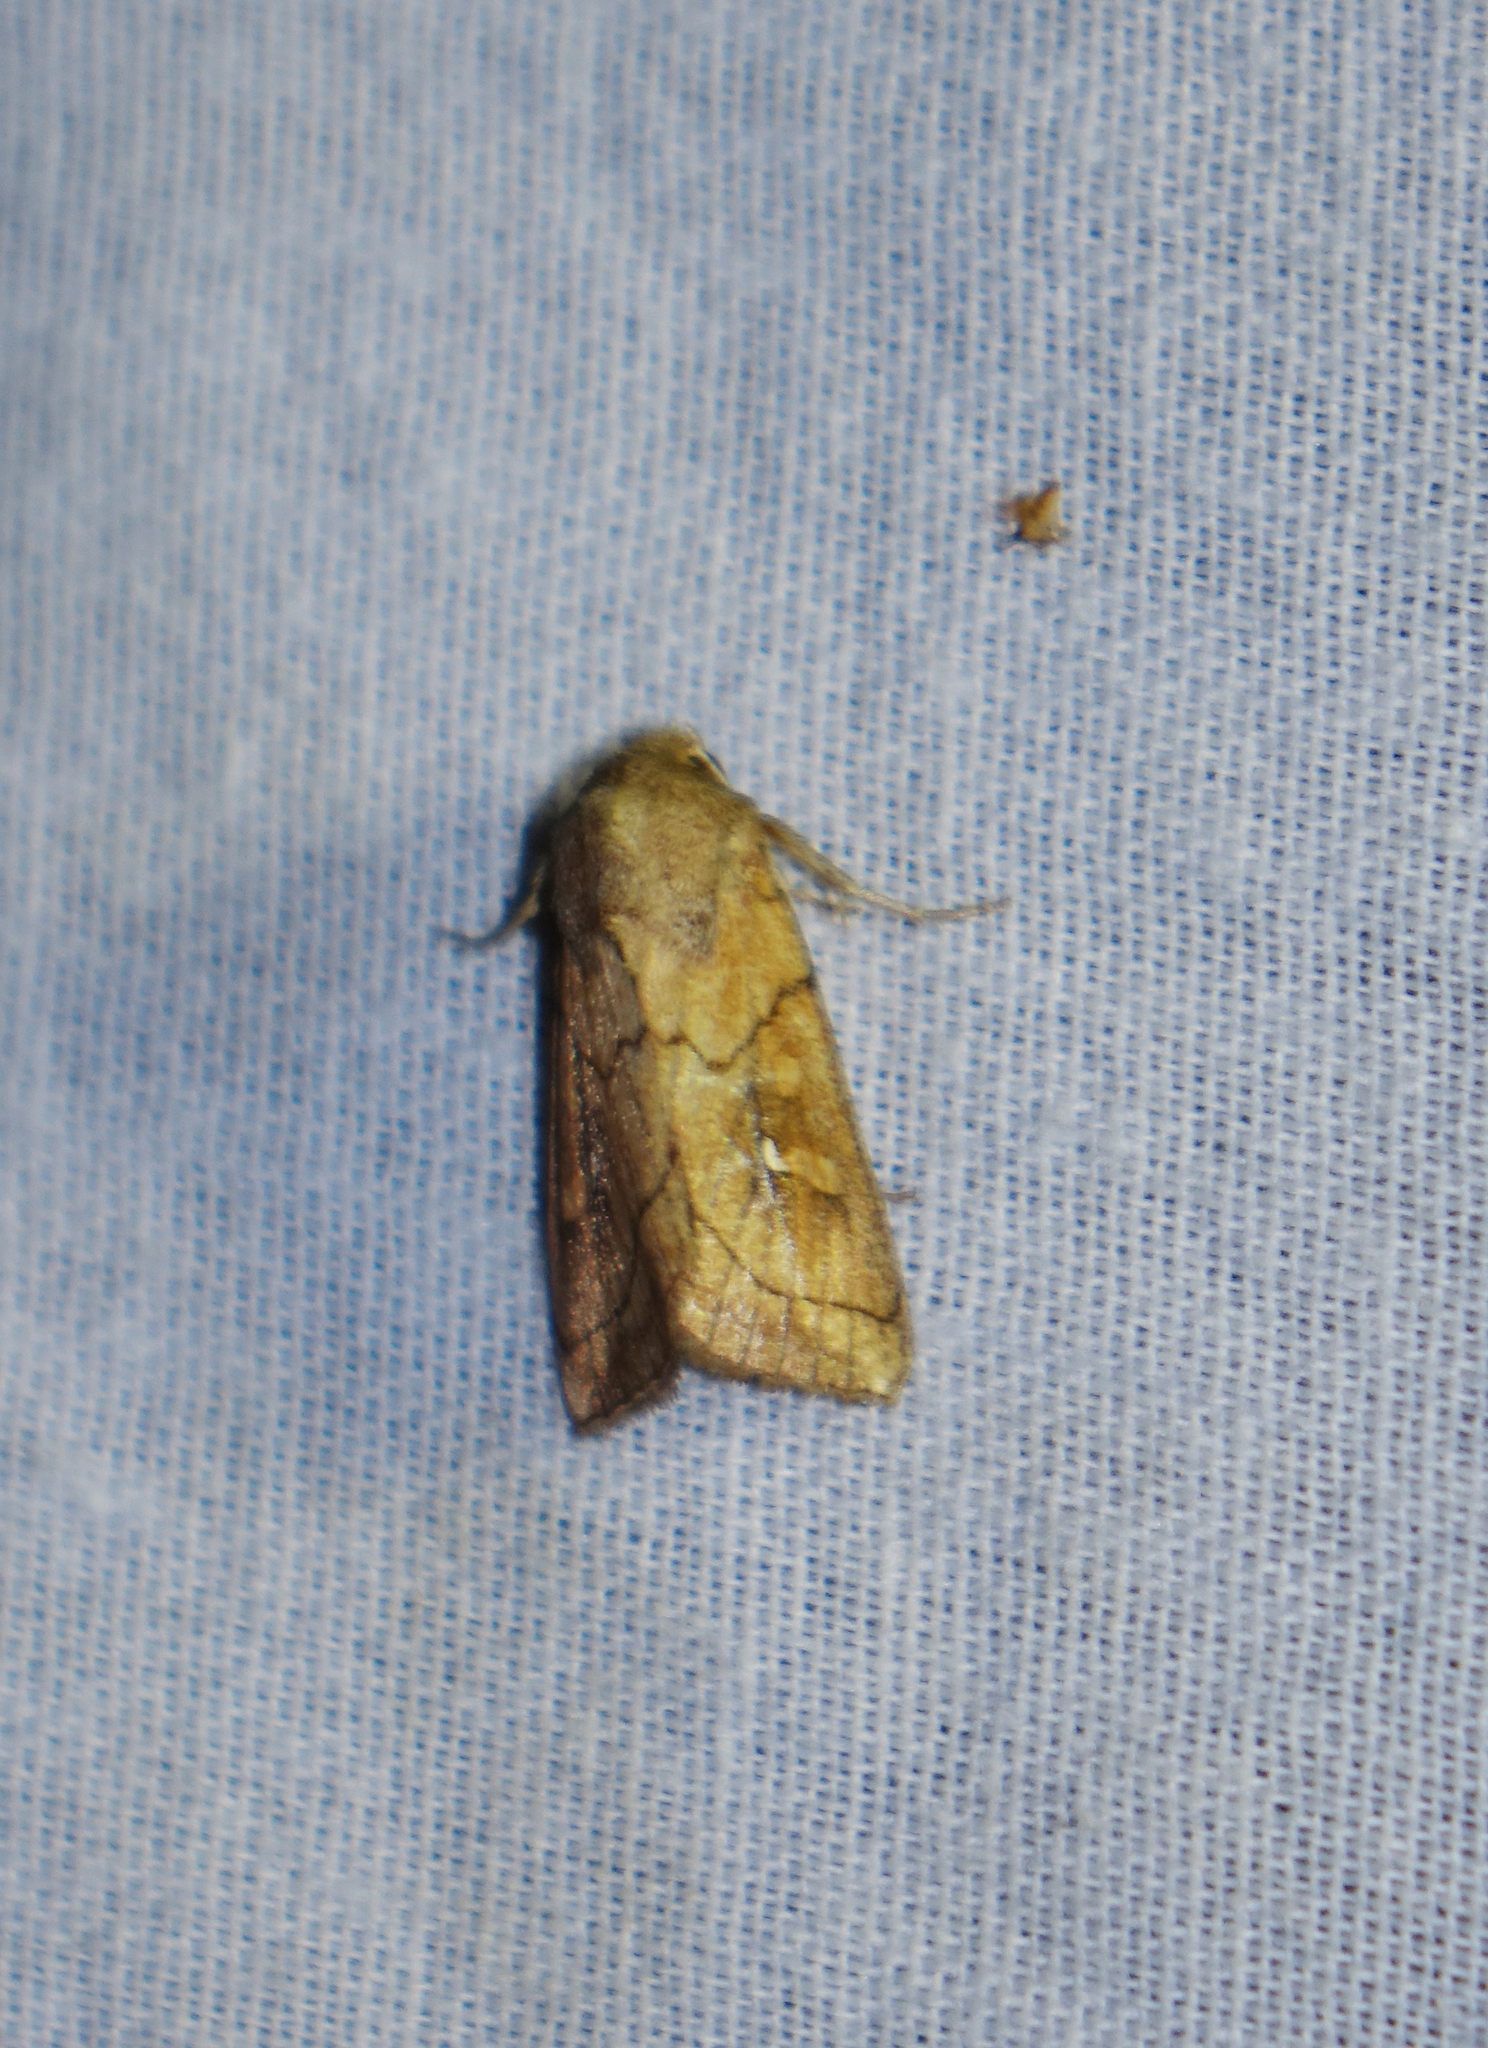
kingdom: Animalia
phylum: Arthropoda
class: Insecta
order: Lepidoptera
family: Noctuidae
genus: Mythimna
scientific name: Mythimna conigera
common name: Brown-line bright-eye
